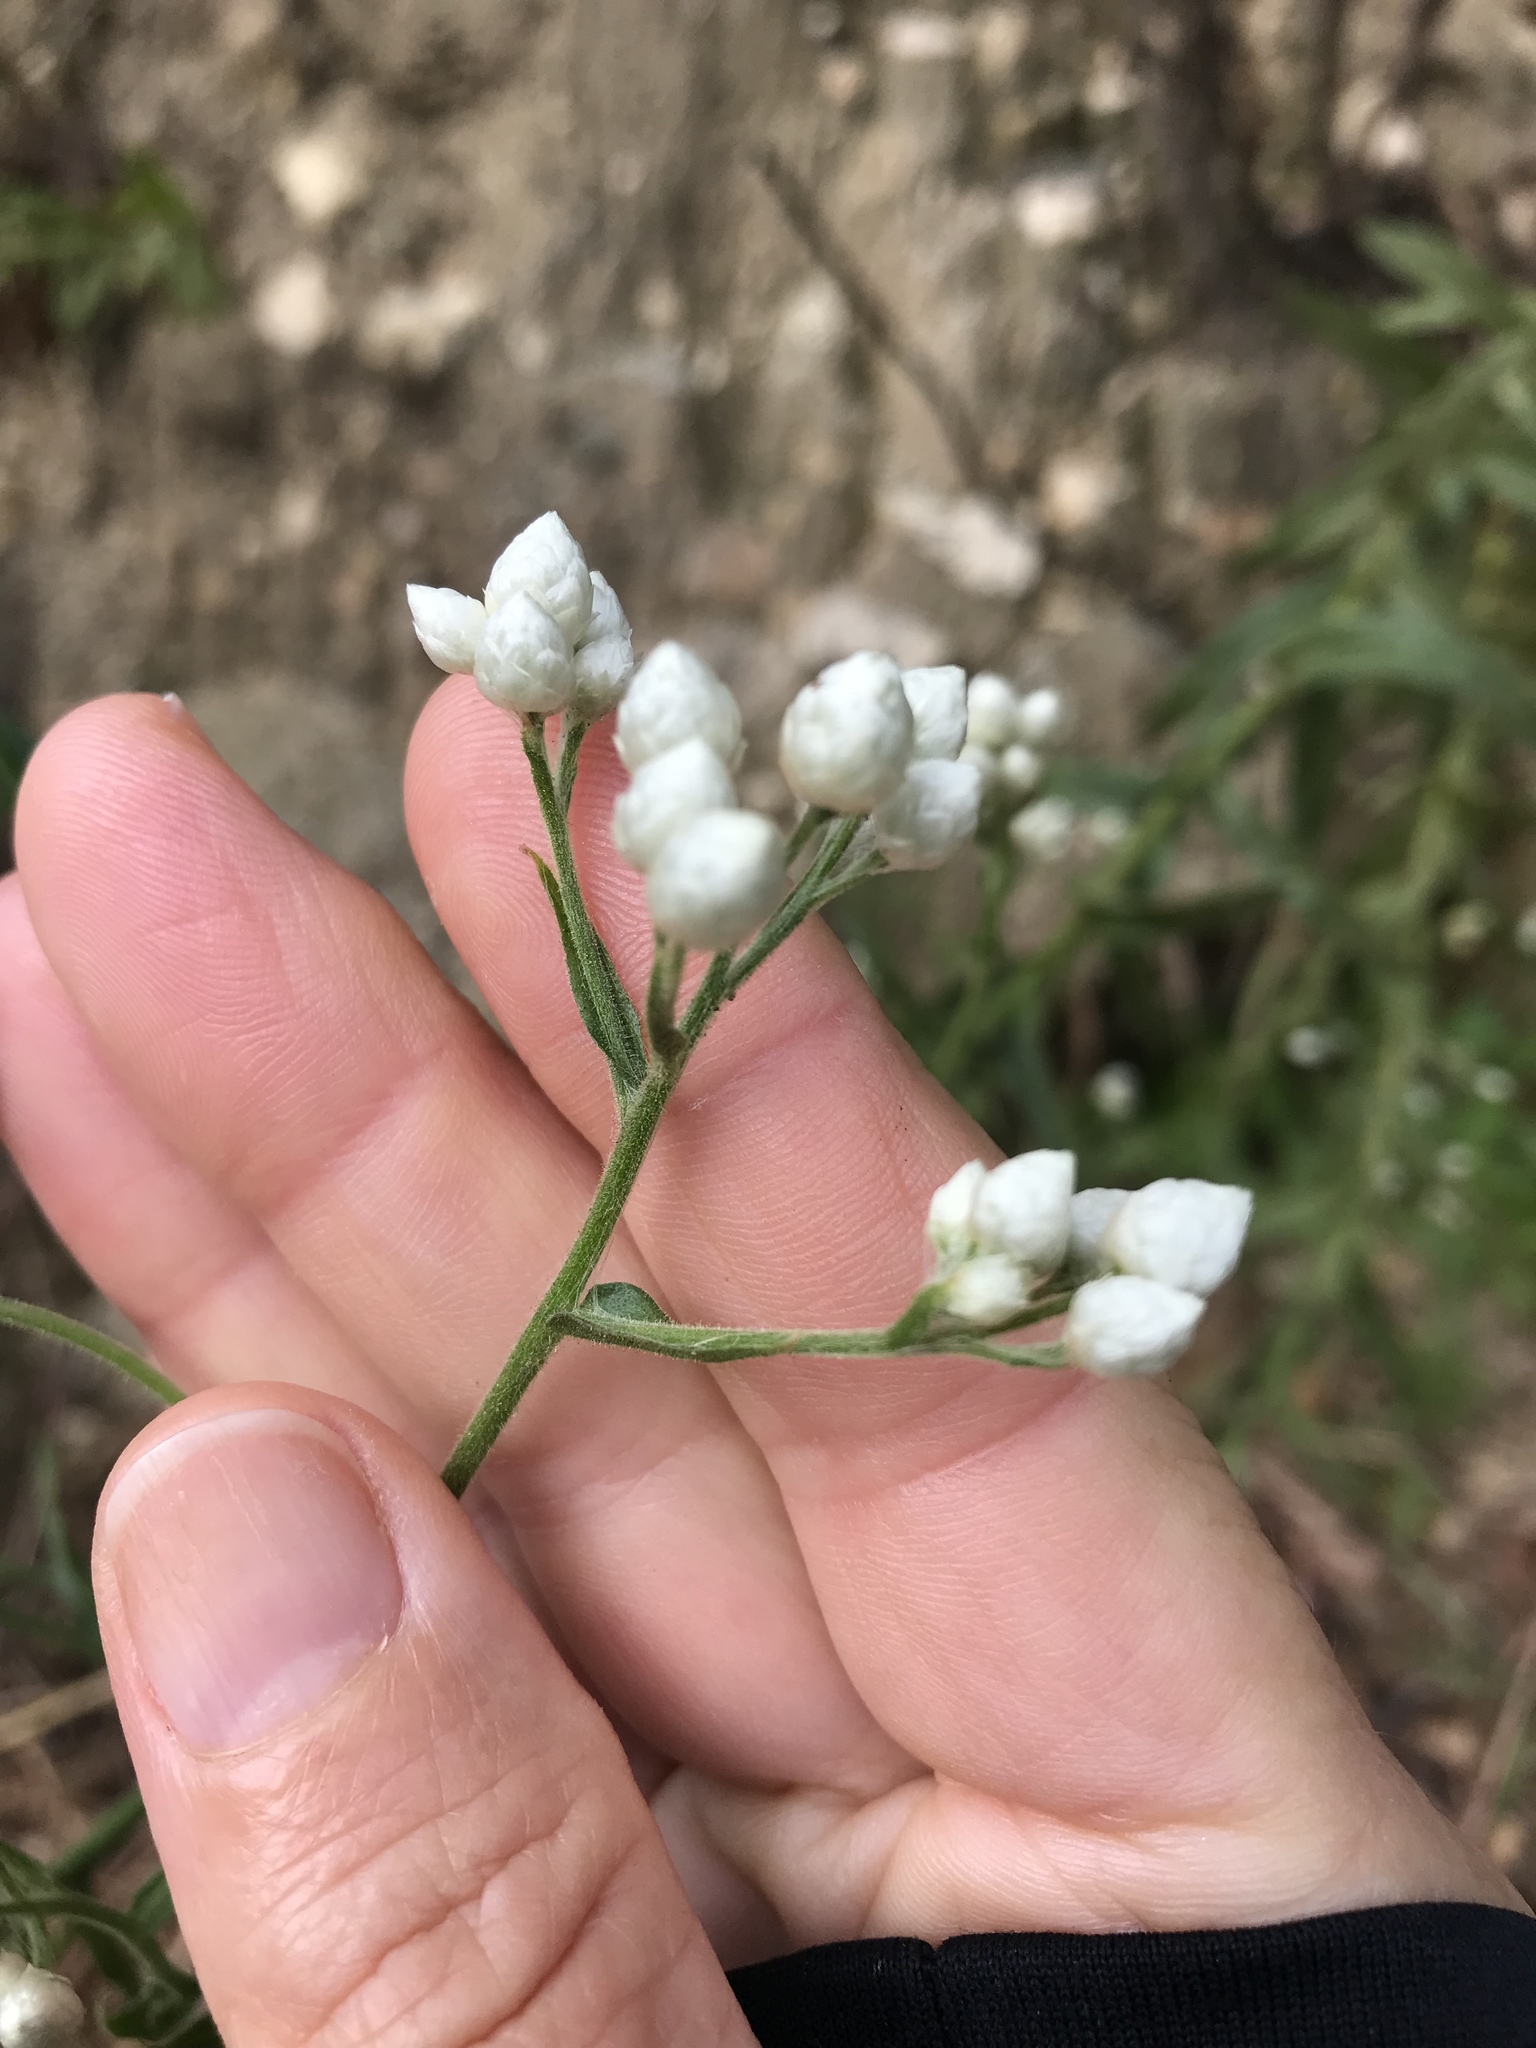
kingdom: Plantae
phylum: Tracheophyta
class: Magnoliopsida
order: Asterales
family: Asteraceae
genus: Pseudognaphalium
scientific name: Pseudognaphalium californicum
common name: California rabbit-tobacco
